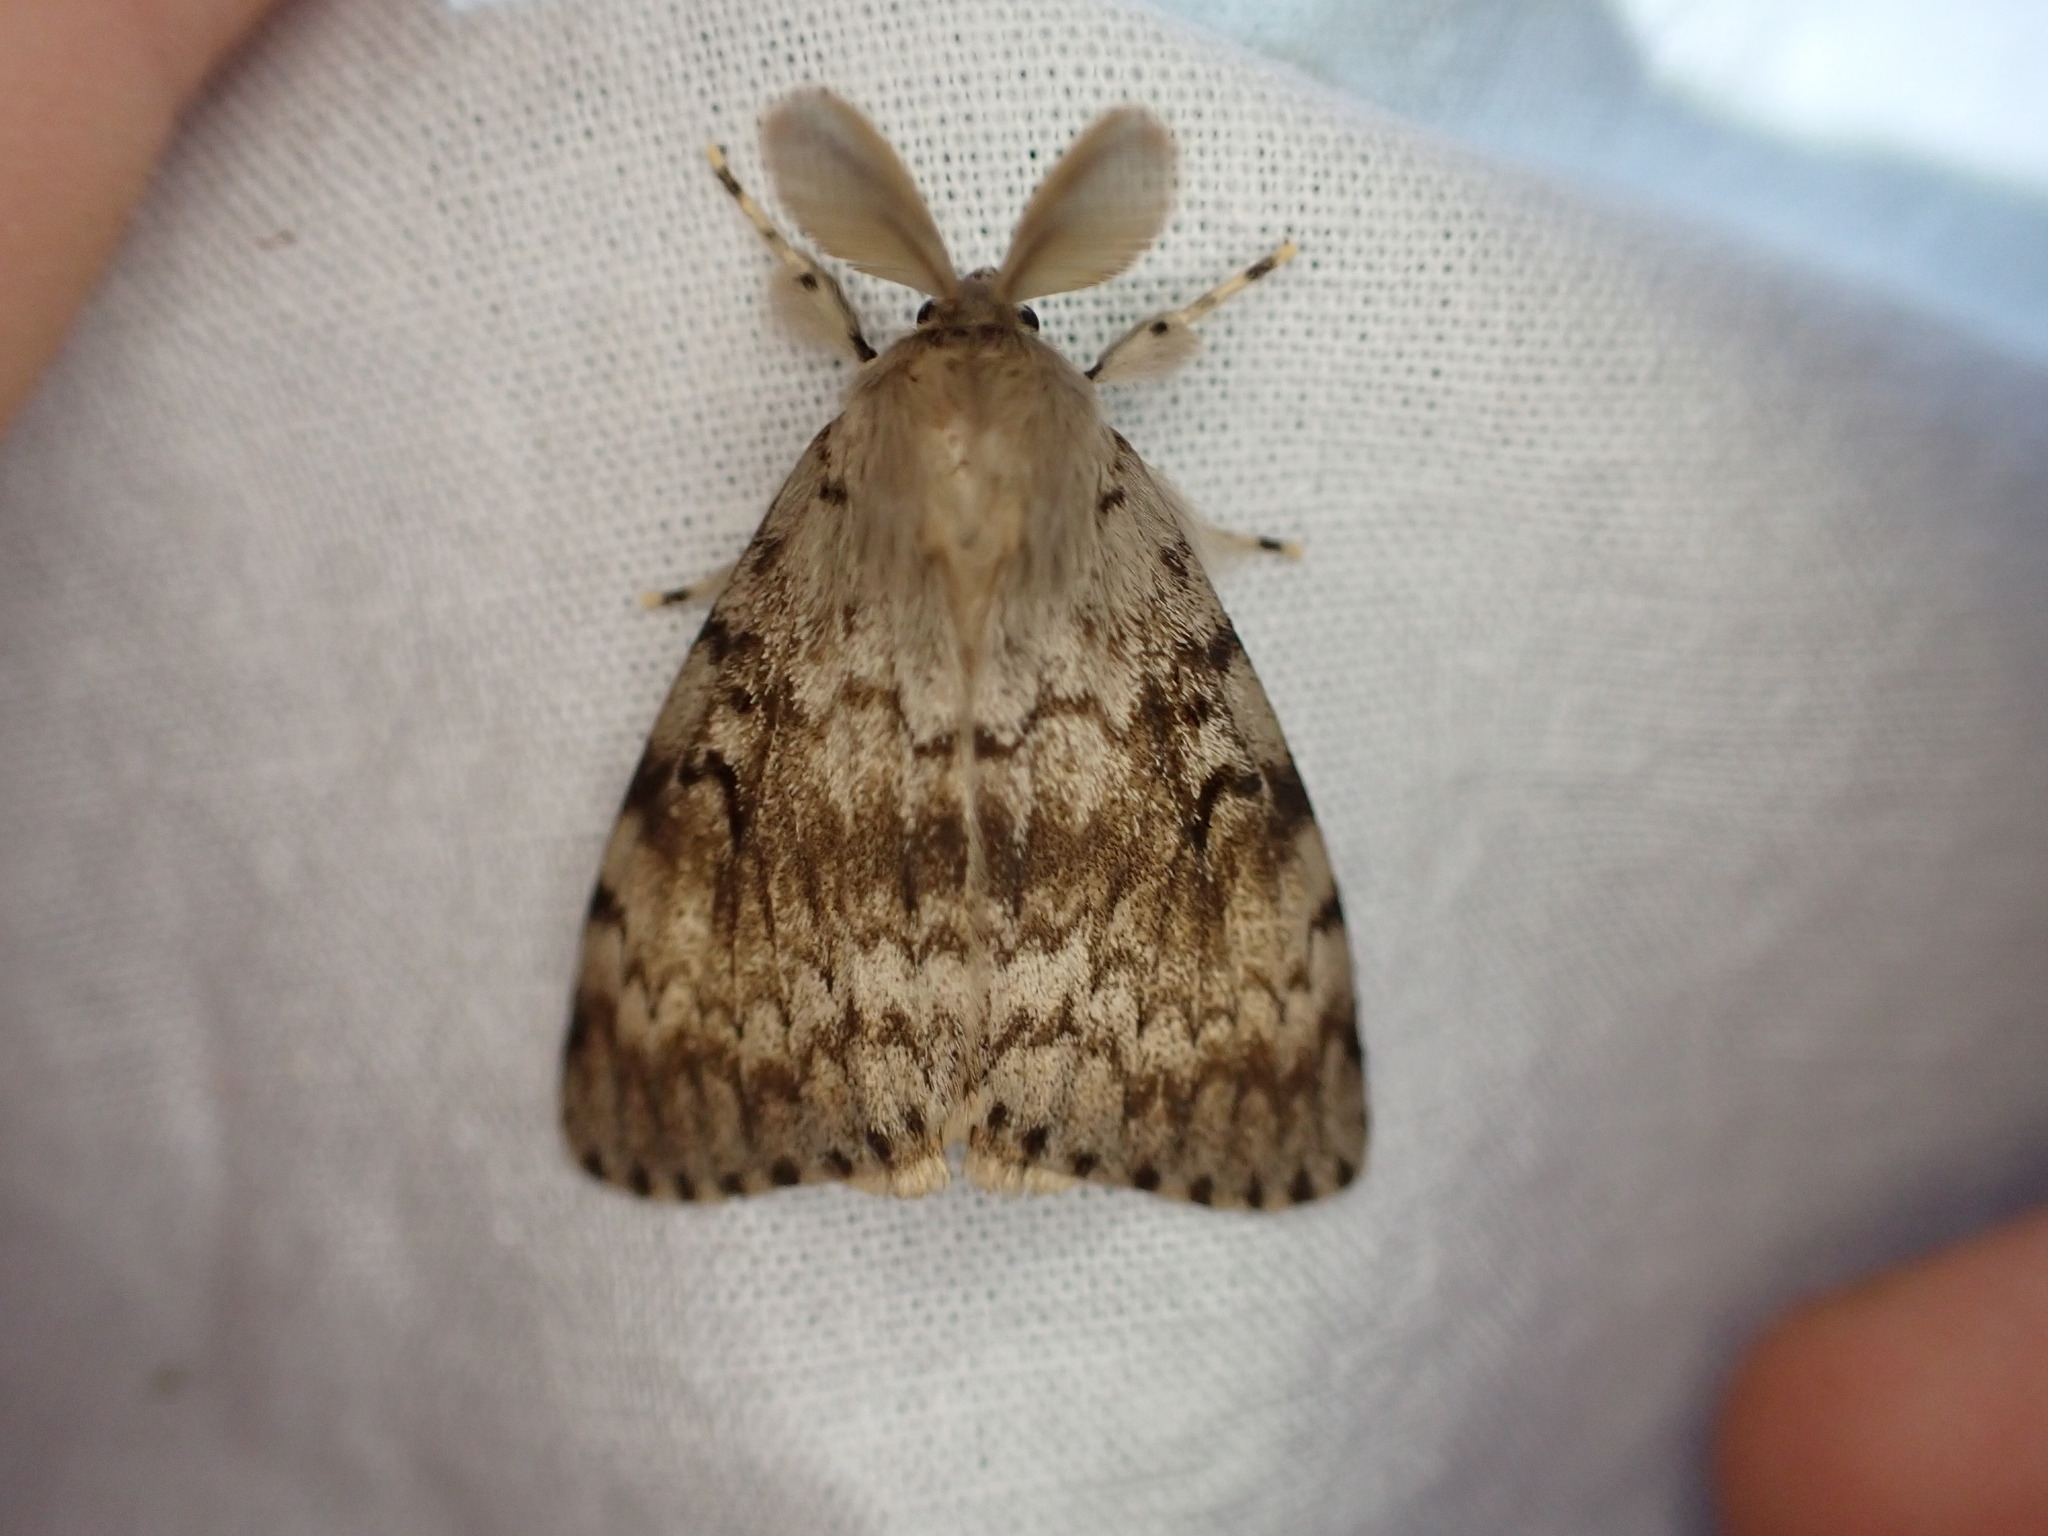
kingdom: Animalia
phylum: Arthropoda
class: Insecta
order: Lepidoptera
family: Erebidae
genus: Lymantria
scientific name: Lymantria dispar
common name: Gypsy moth
